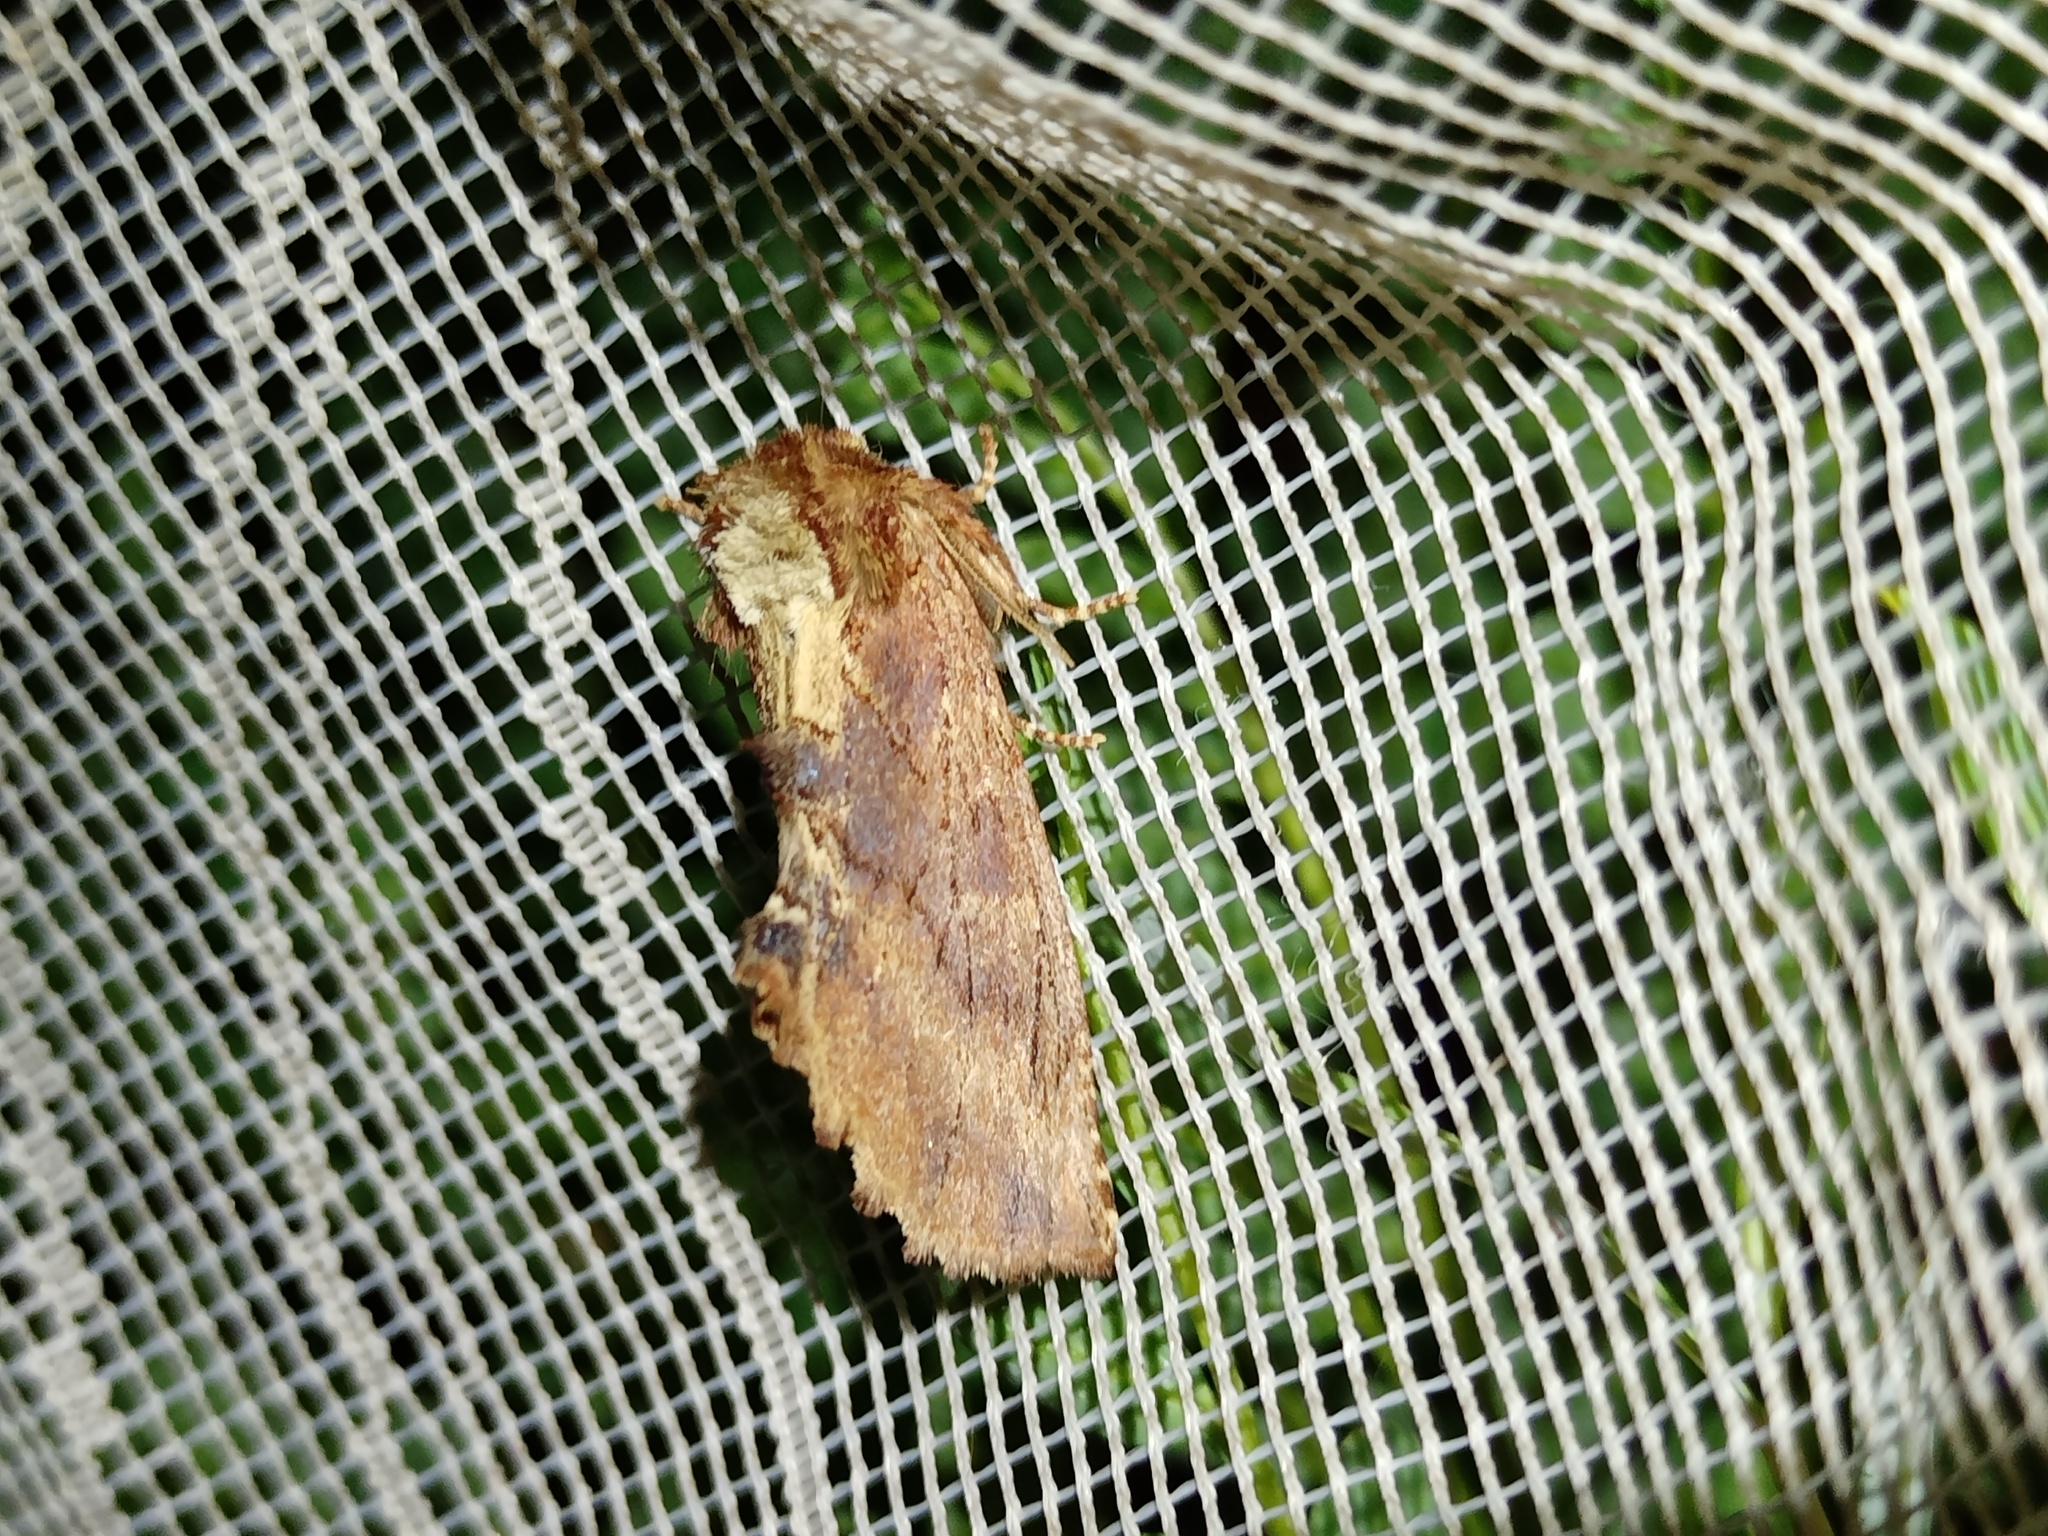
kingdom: Animalia
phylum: Arthropoda
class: Insecta
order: Lepidoptera
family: Notodontidae
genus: Ptilodon
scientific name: Ptilodon capucina
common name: Coxcomb prominent
